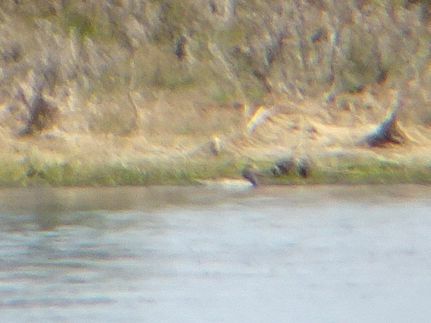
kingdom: Animalia
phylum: Chordata
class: Aves
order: Anseriformes
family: Anatidae
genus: Anas
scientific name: Anas erythrorhyncha
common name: Red-billed teal
